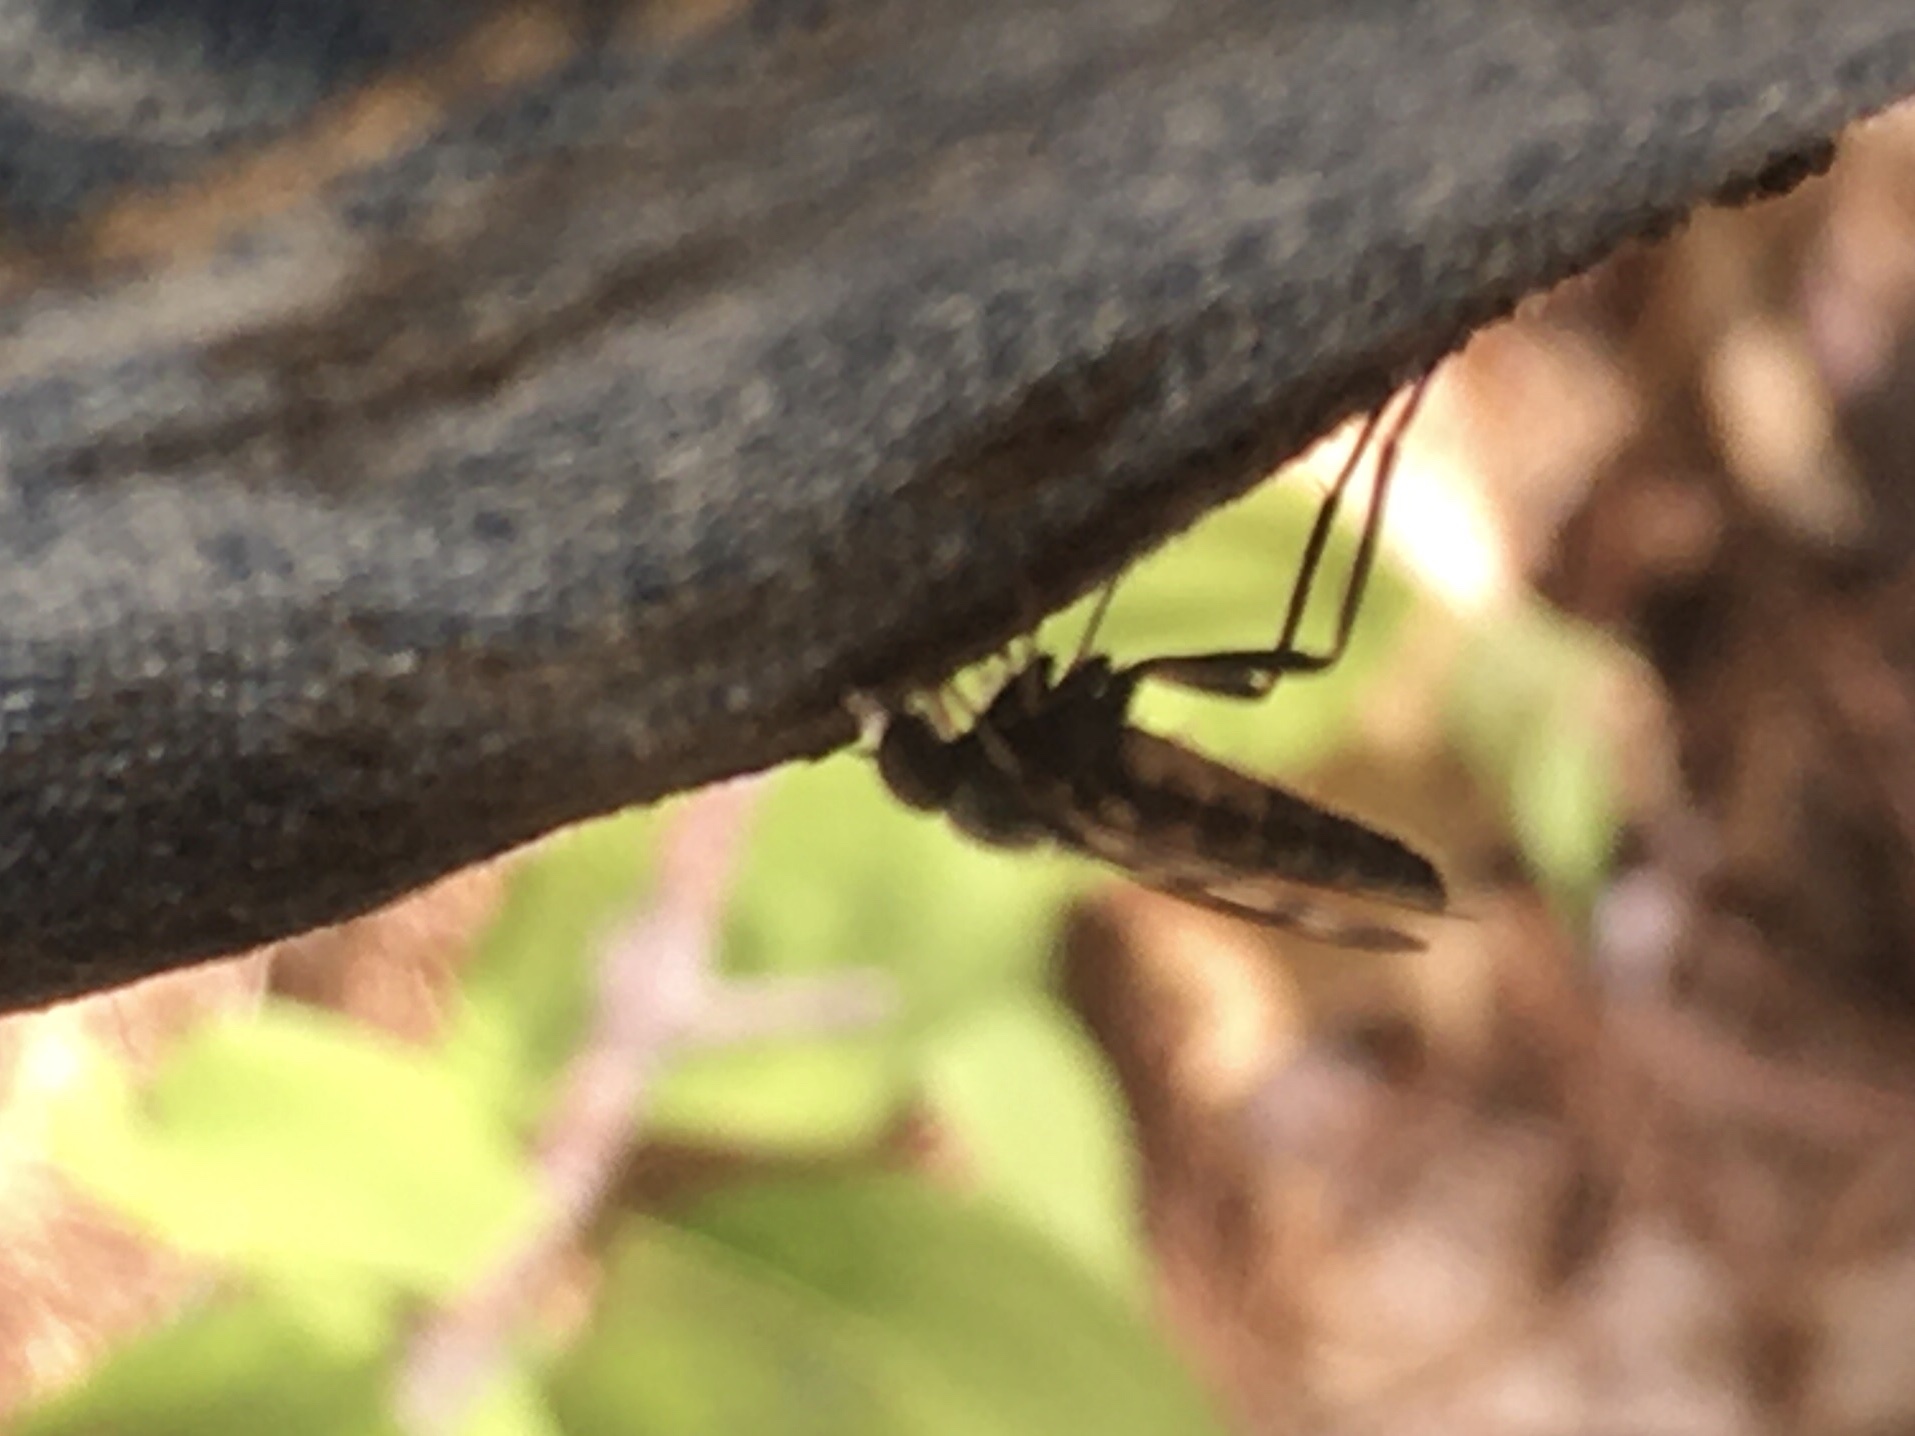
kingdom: Animalia
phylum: Arthropoda
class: Insecta
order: Diptera
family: Rhagionidae
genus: Rhagio
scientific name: Rhagio mystaceus
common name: Common snipe fly
